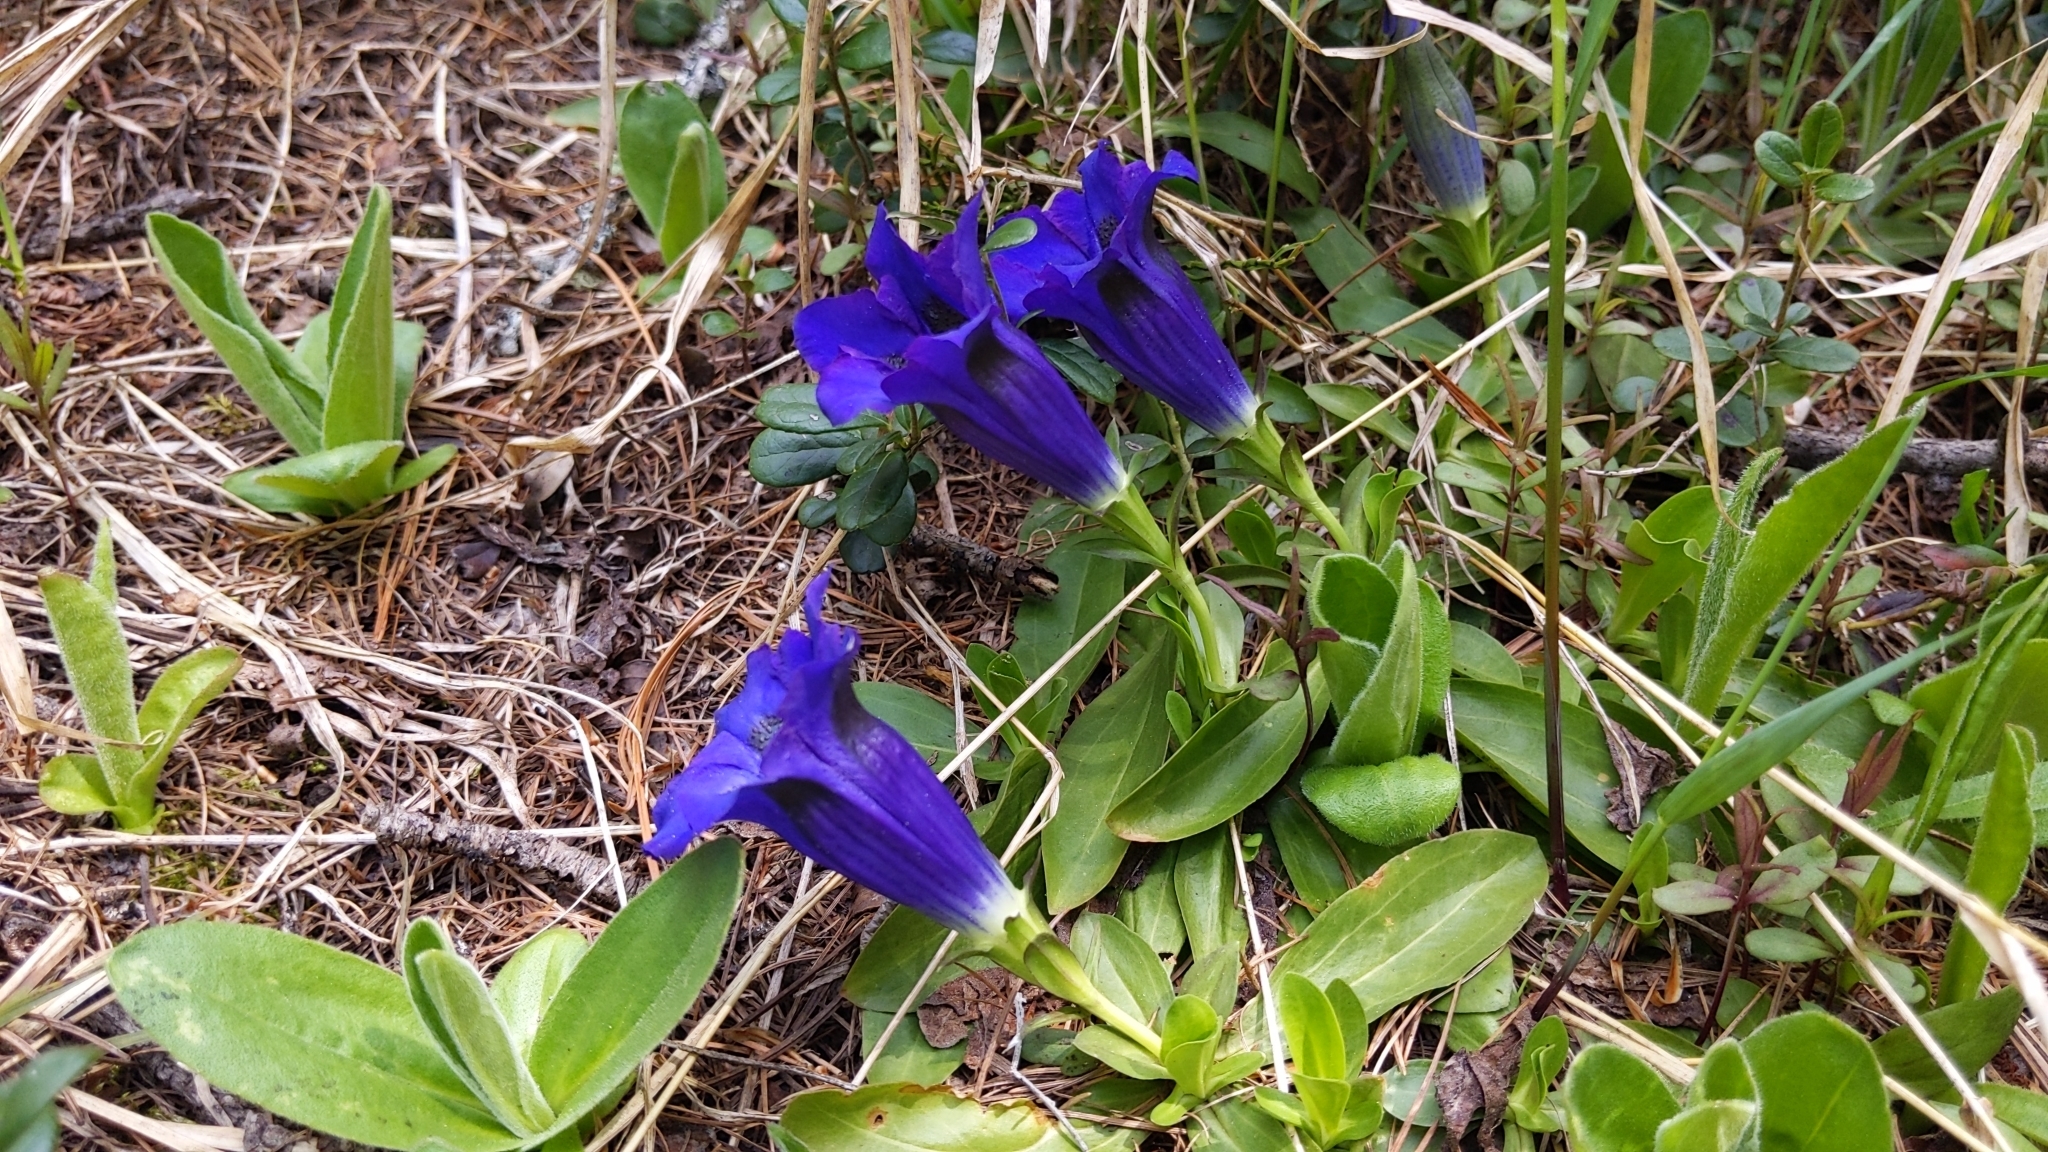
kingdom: Plantae
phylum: Tracheophyta
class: Magnoliopsida
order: Gentianales
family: Gentianaceae
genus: Gentiana
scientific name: Gentiana acaulis
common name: Trumpet gentian
